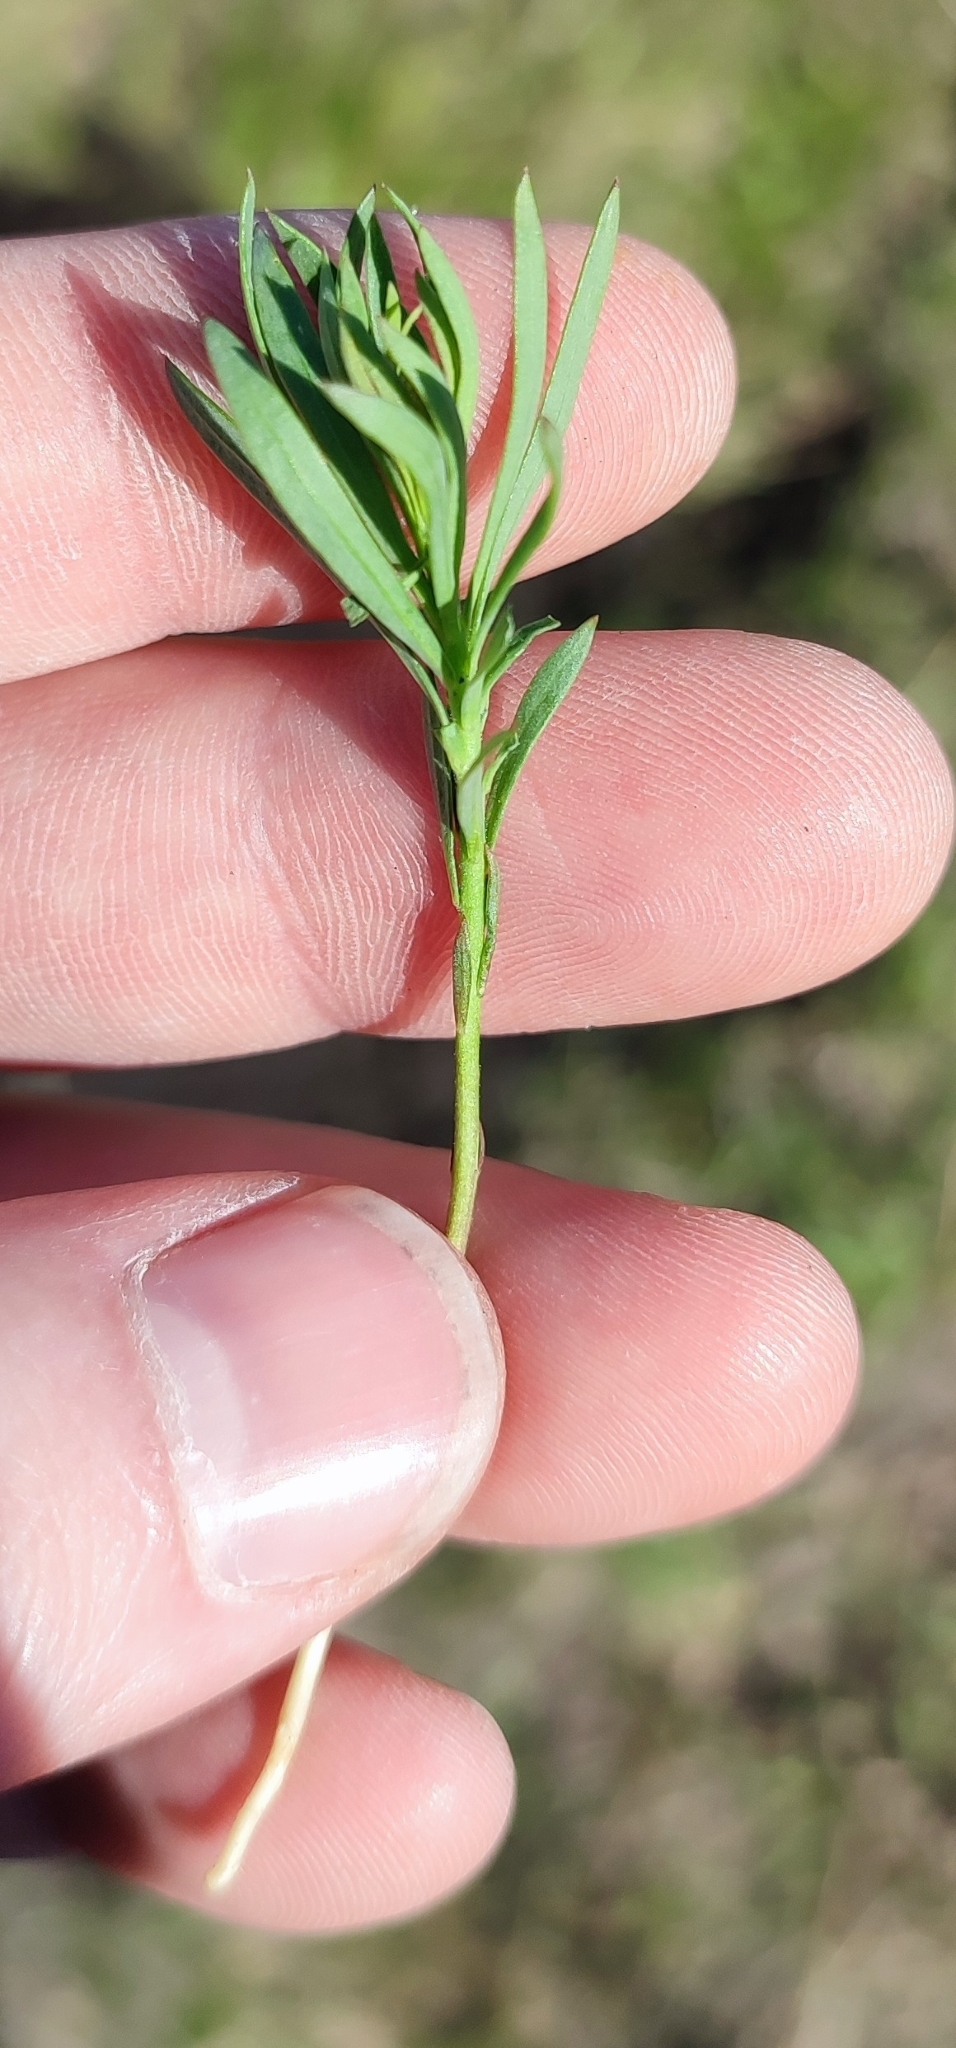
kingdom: Plantae
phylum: Tracheophyta
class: Magnoliopsida
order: Lamiales
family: Plantaginaceae
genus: Linaria
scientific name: Linaria vulgaris
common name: Butter and eggs
